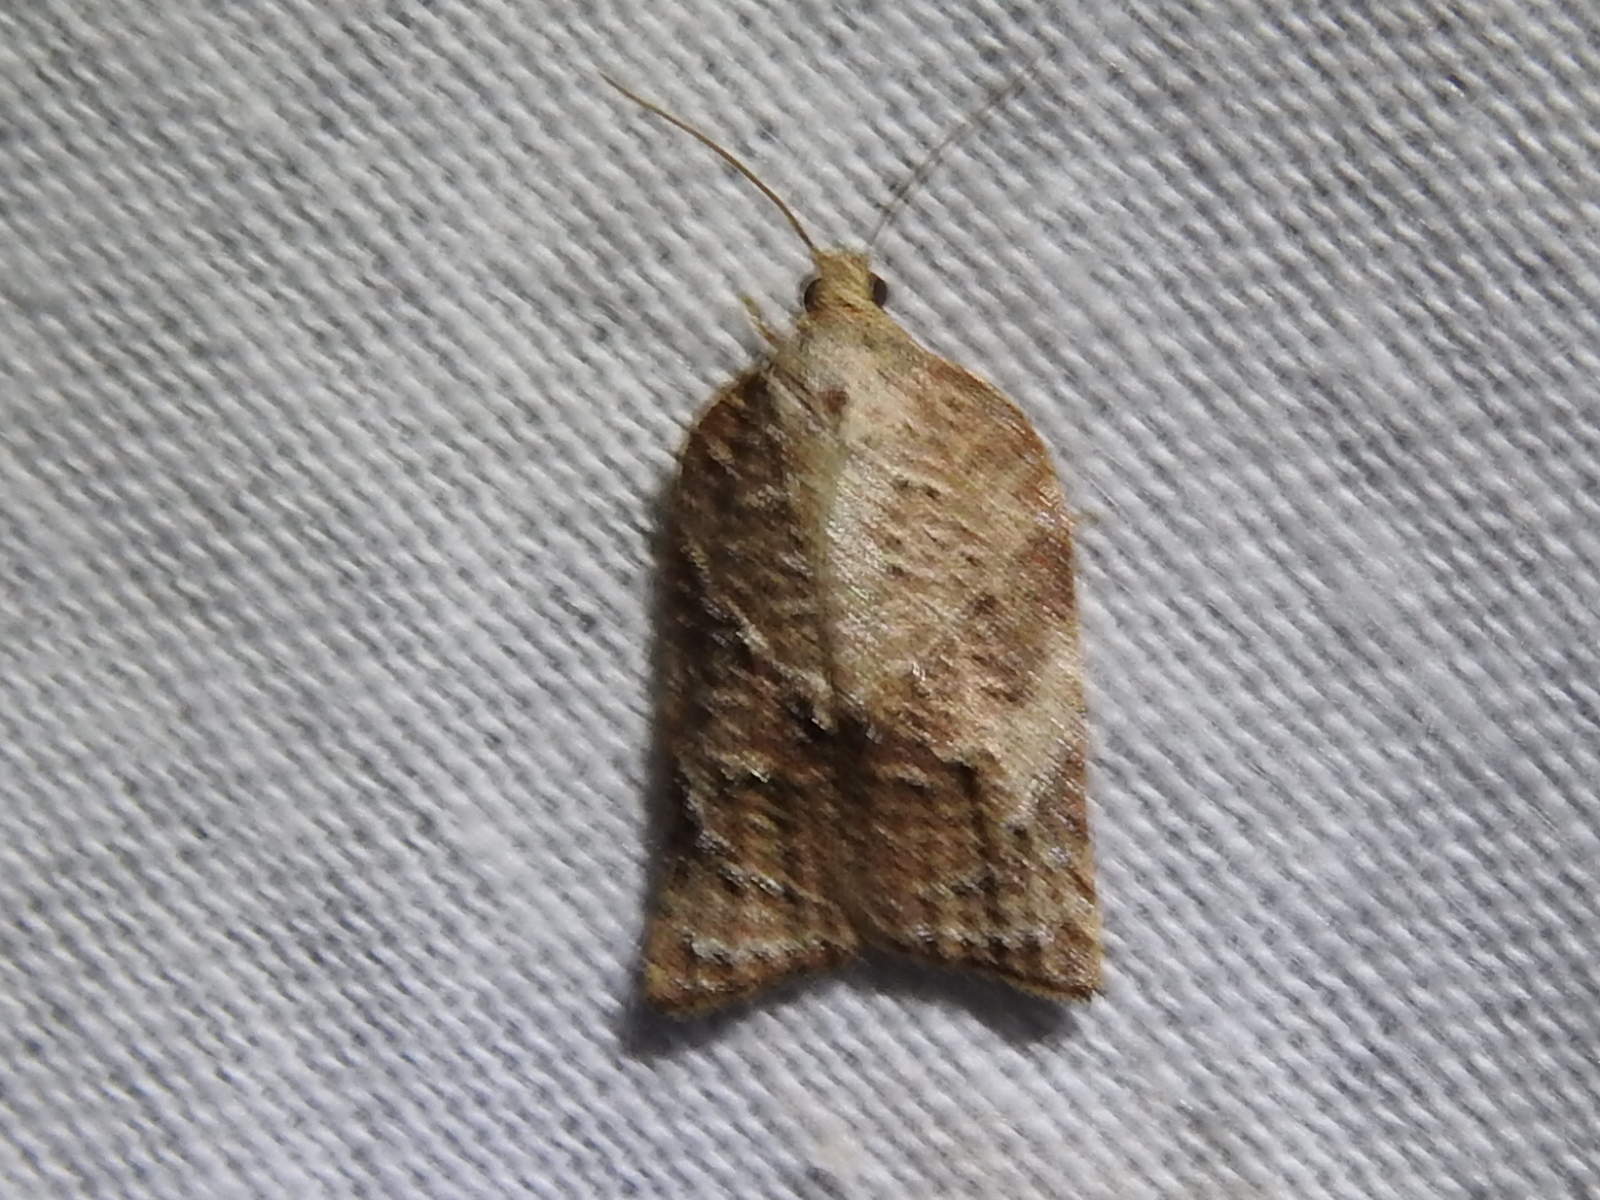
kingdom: Animalia
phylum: Arthropoda
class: Insecta
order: Lepidoptera
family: Tortricidae
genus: Platynota
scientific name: Platynota rostrana
